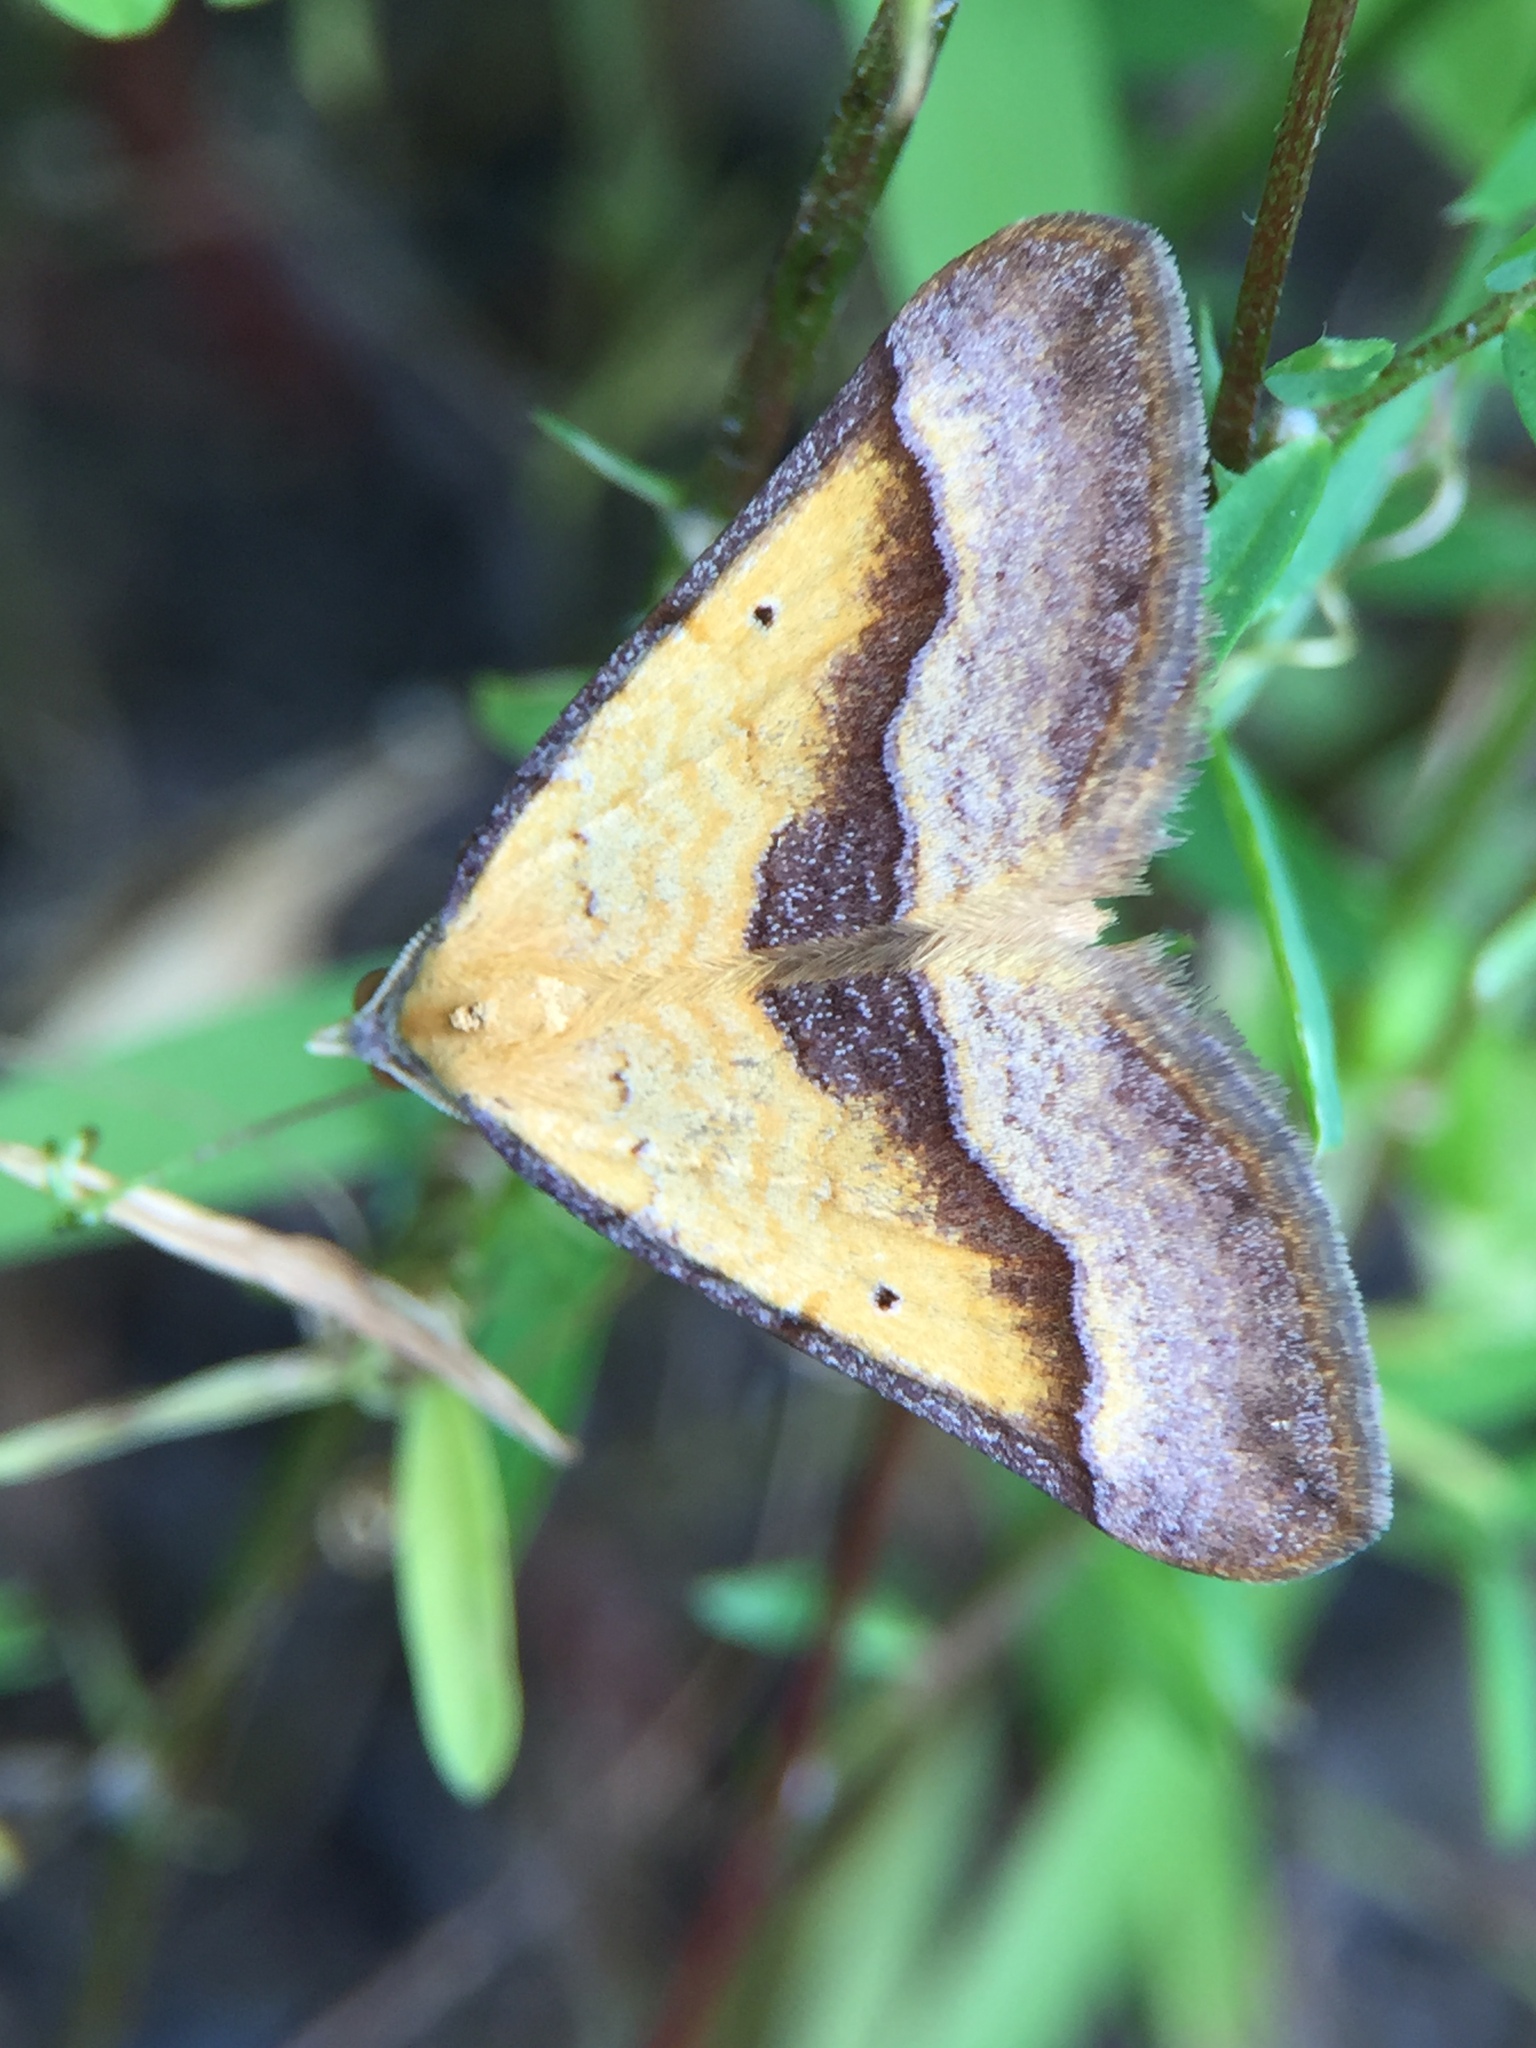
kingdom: Animalia
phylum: Arthropoda
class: Insecta
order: Lepidoptera
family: Geometridae
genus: Anachloris
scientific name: Anachloris subochraria
